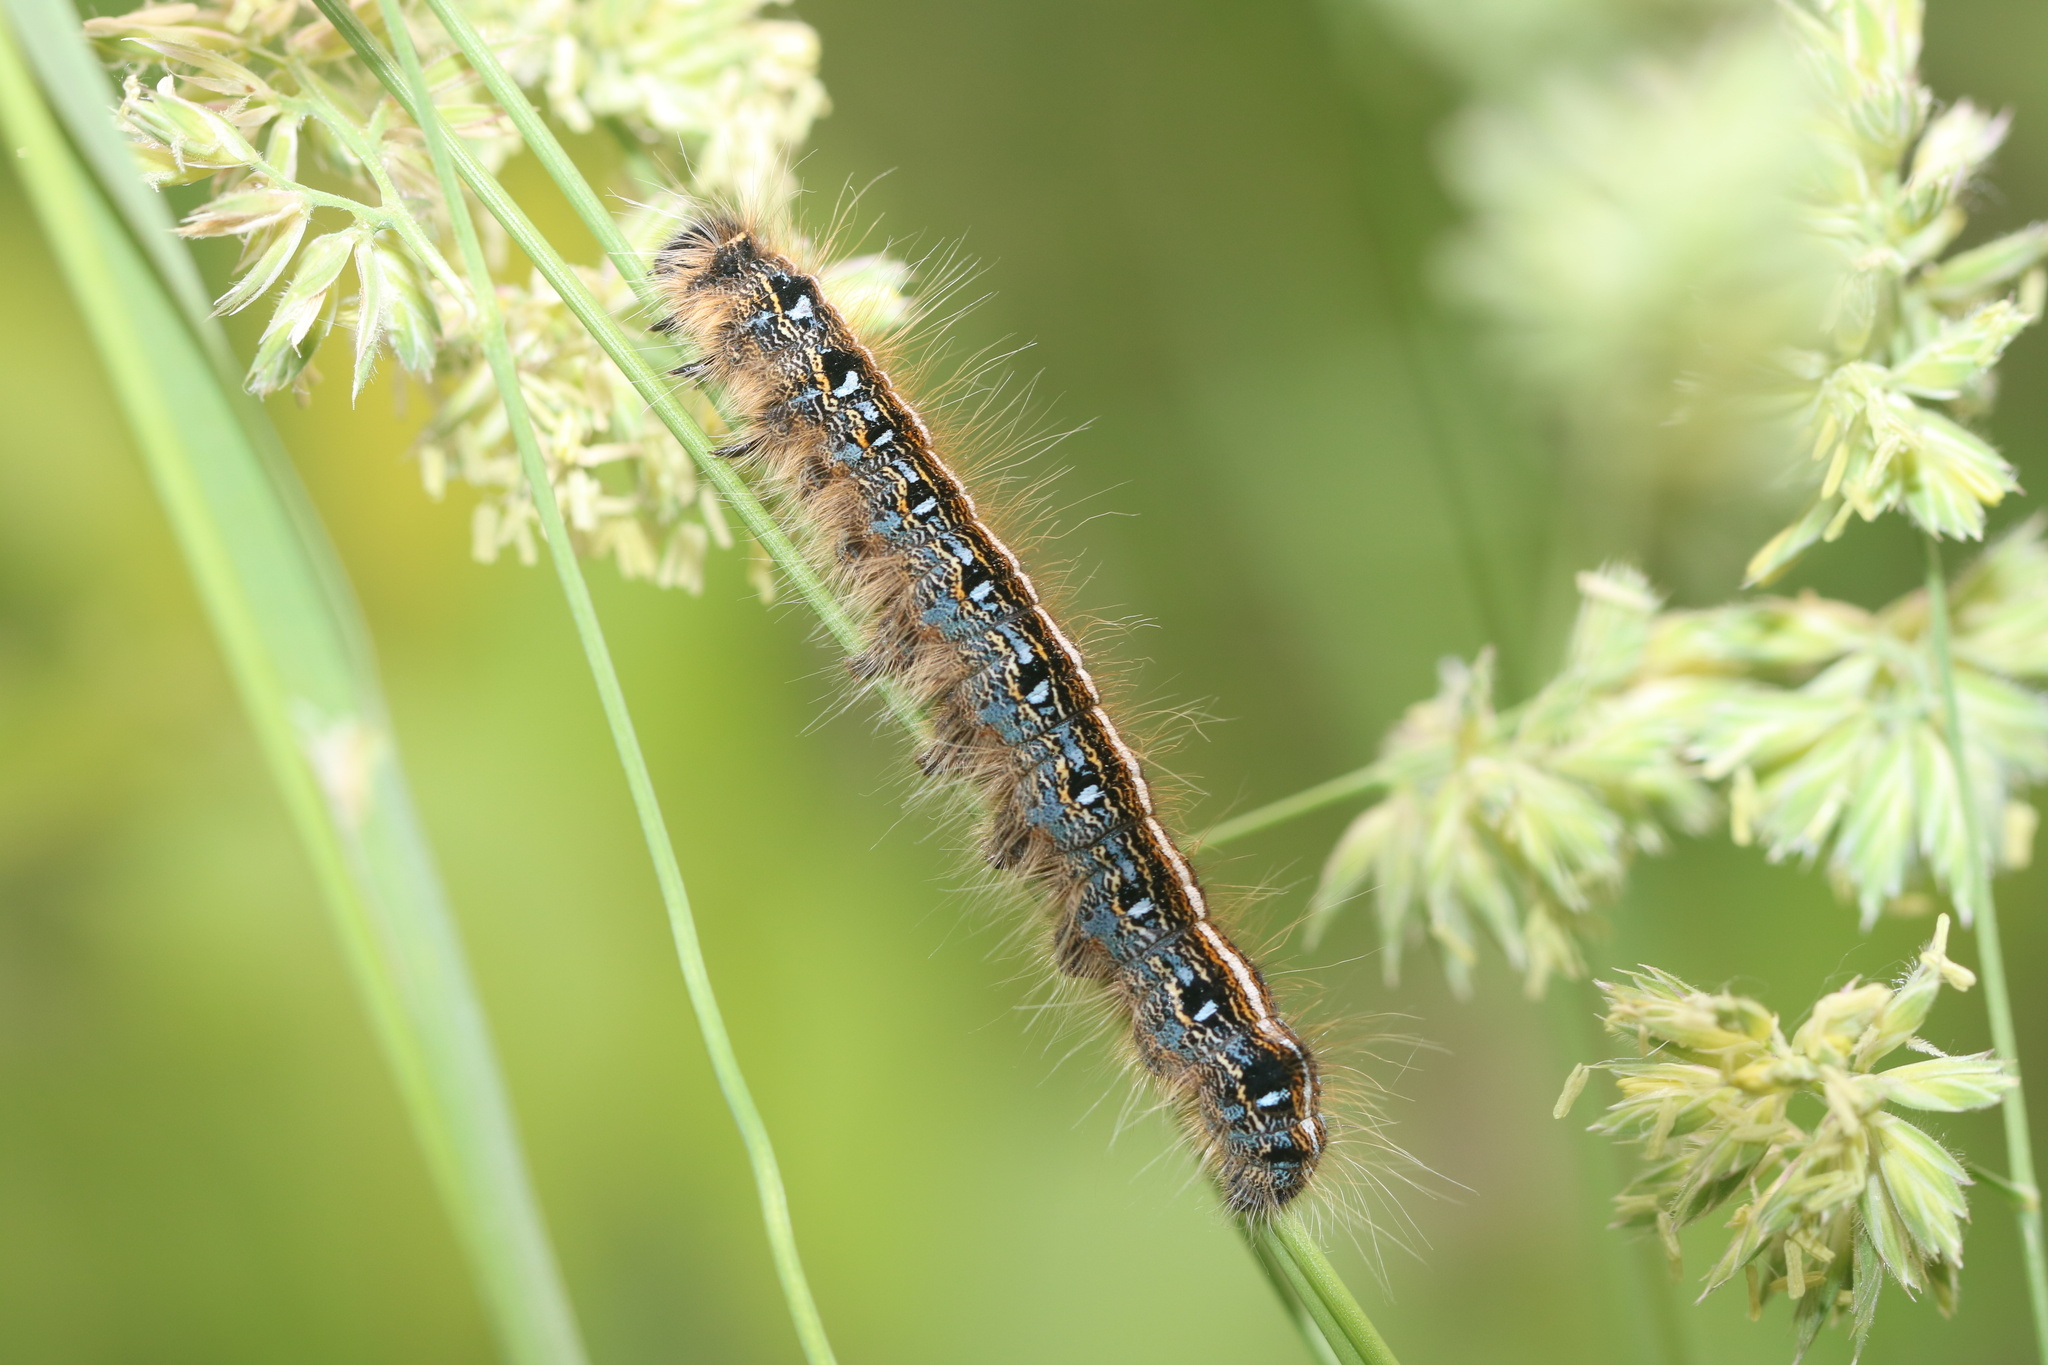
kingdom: Animalia
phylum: Arthropoda
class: Insecta
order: Lepidoptera
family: Lasiocampidae
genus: Malacosoma
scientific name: Malacosoma americana
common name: Eastern tent caterpillar moth
